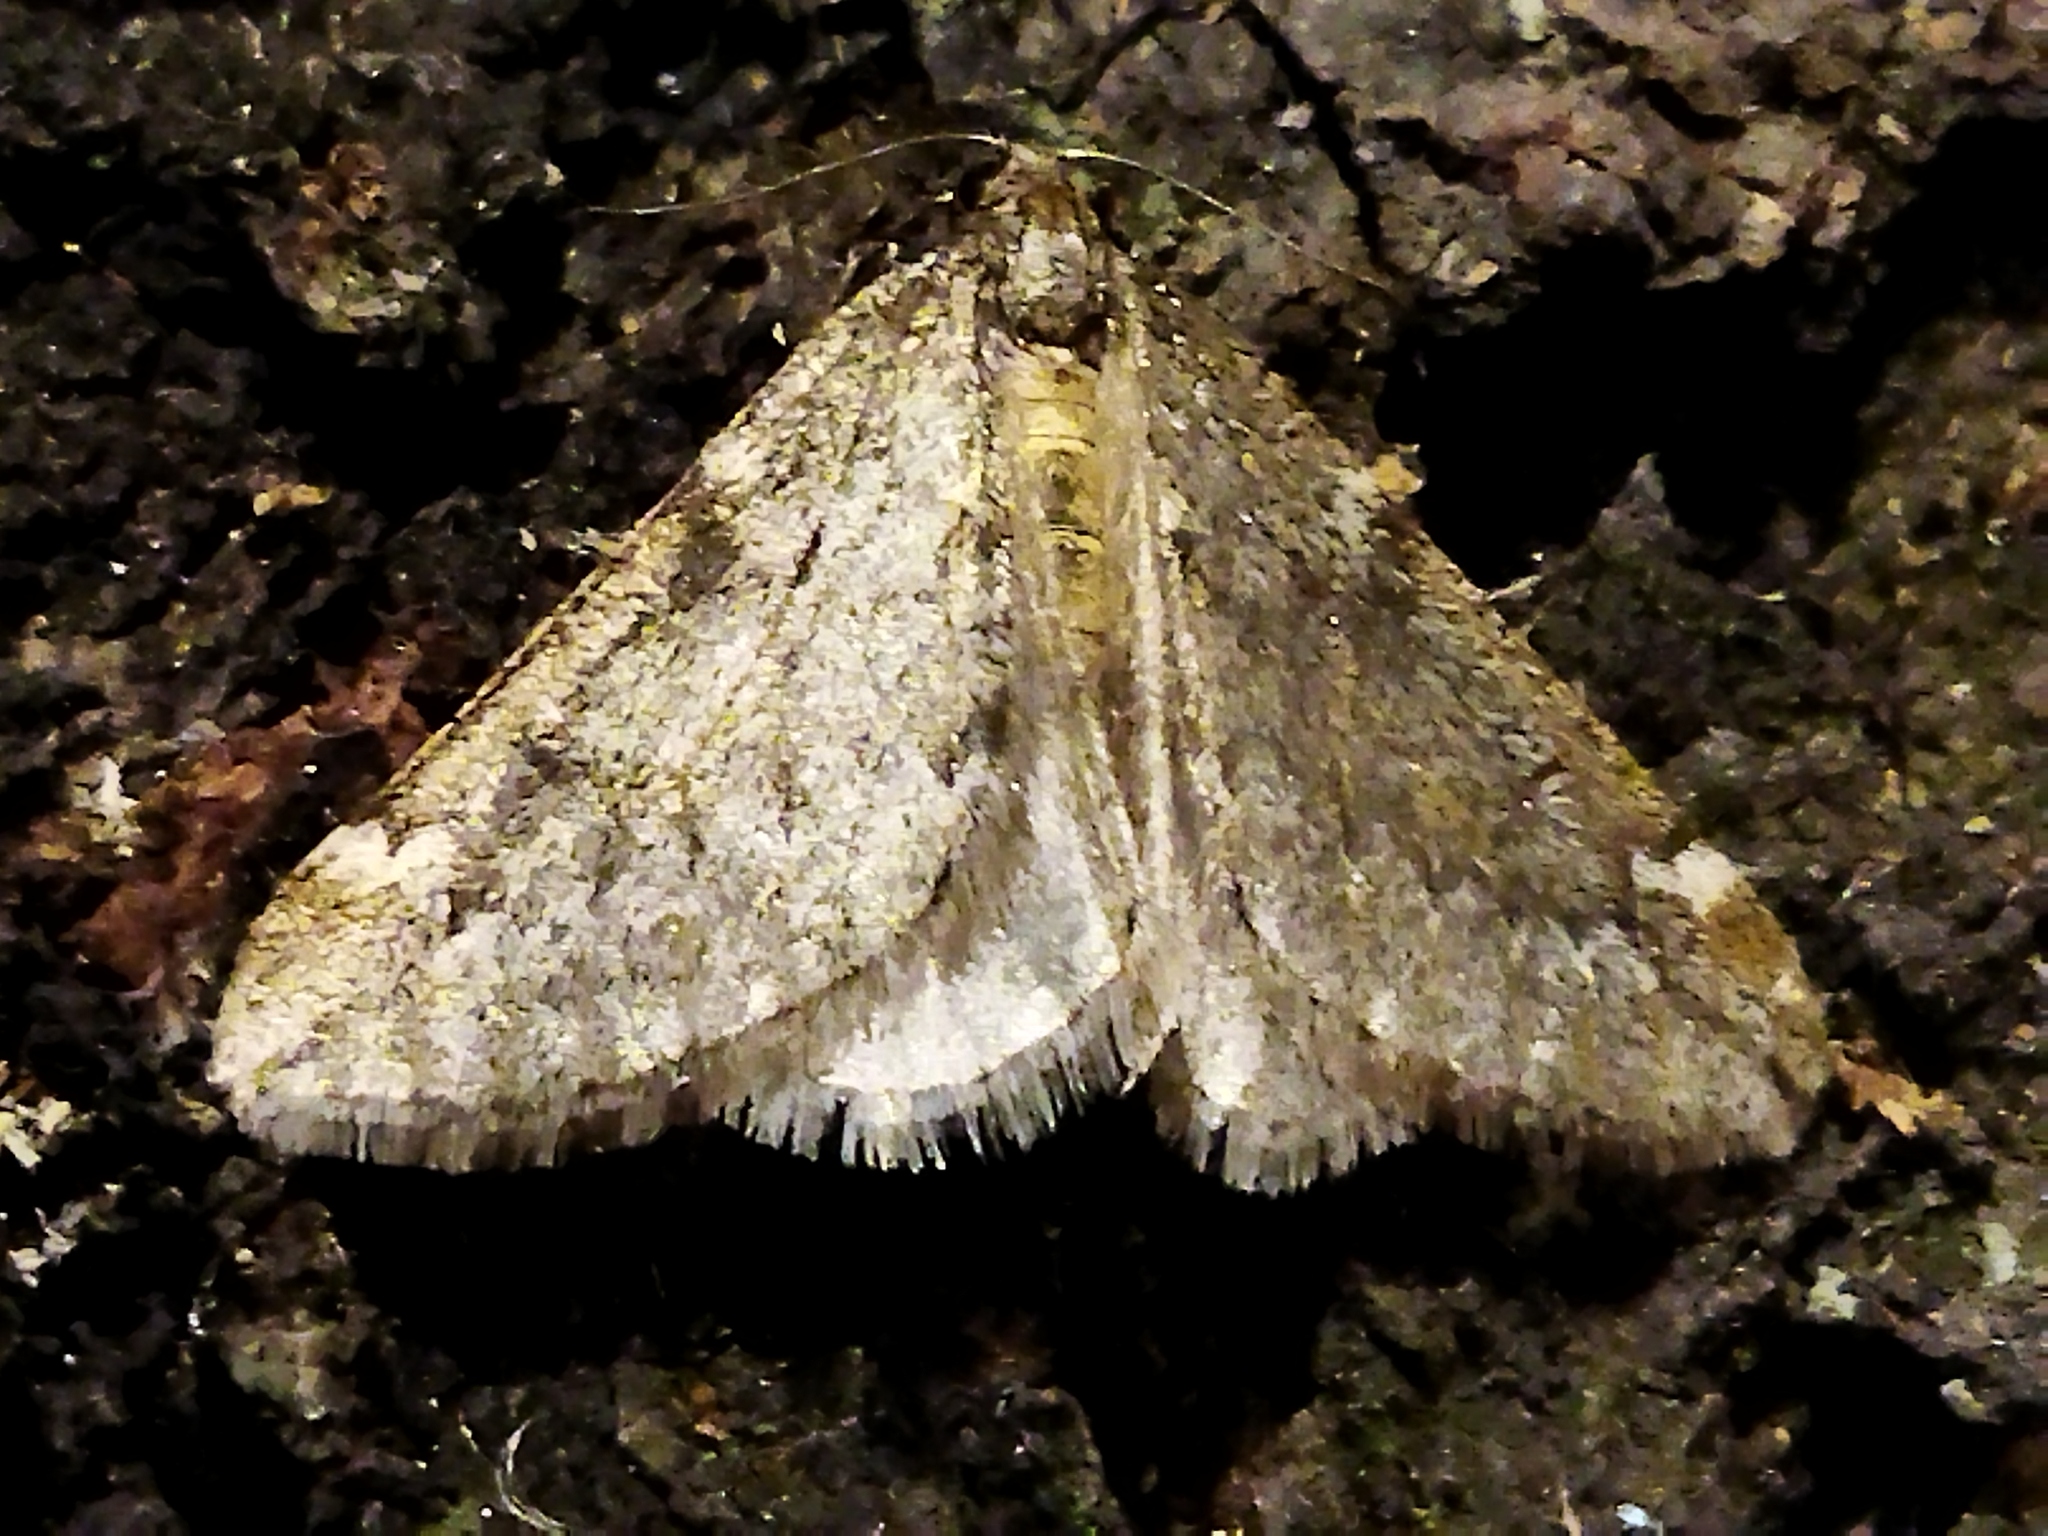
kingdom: Animalia
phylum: Arthropoda
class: Insecta
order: Lepidoptera
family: Geometridae
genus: Alsophila
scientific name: Alsophila aescularia
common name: March moth
